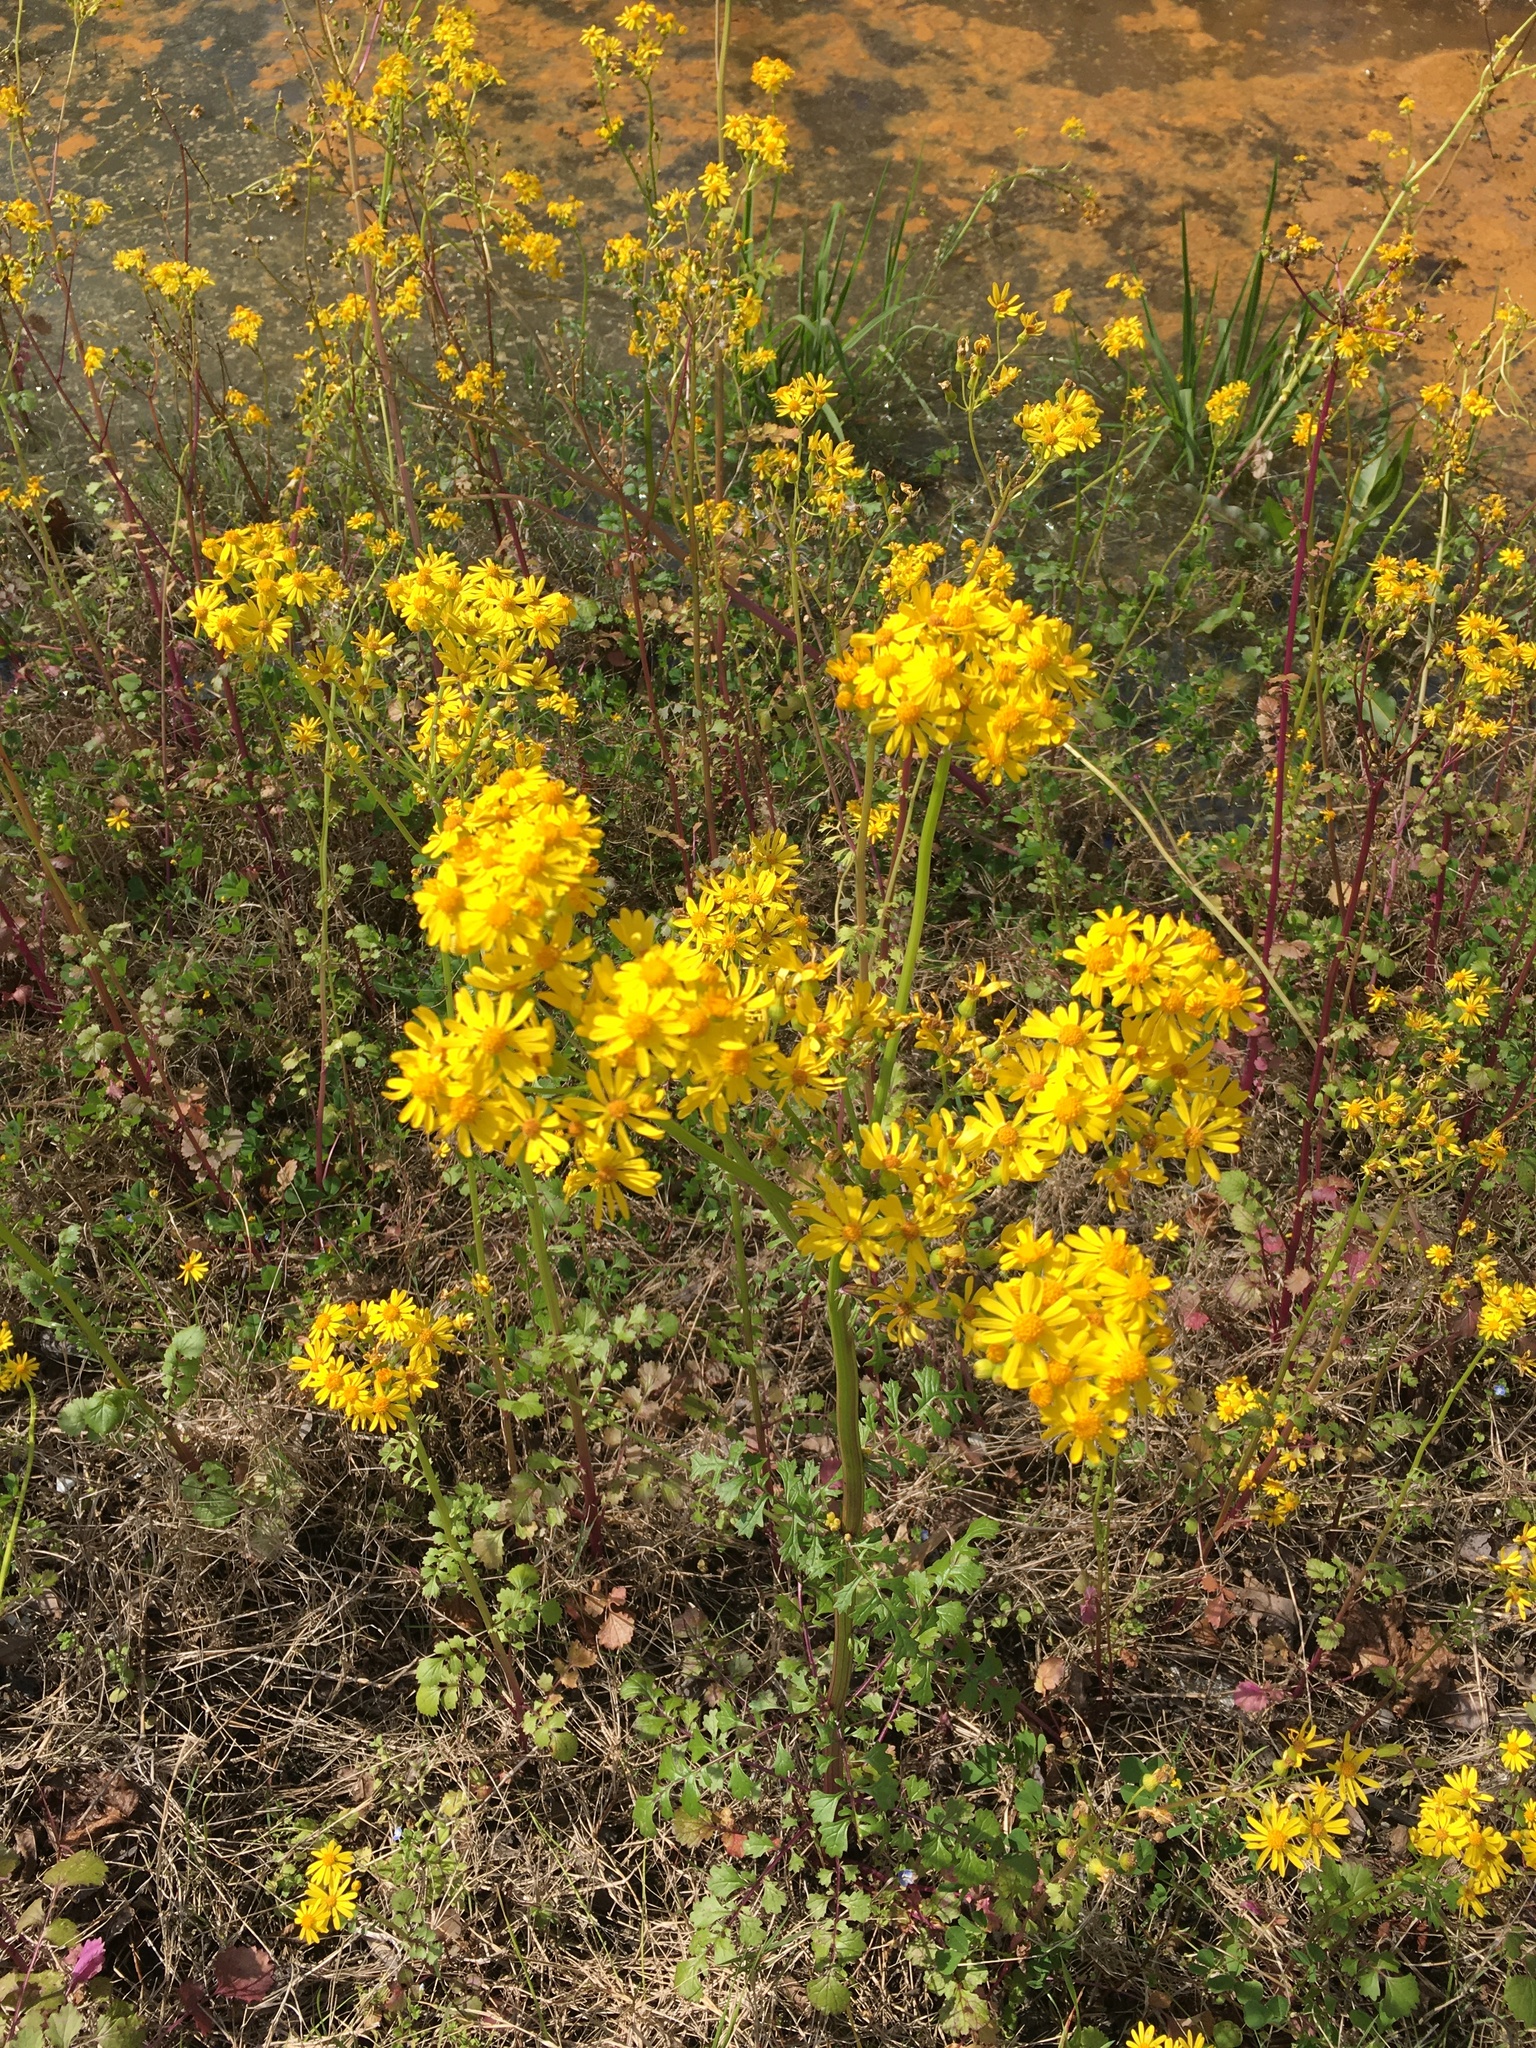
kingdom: Plantae
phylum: Tracheophyta
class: Magnoliopsida
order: Asterales
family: Asteraceae
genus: Packera
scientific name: Packera glabella
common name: Butterweed
